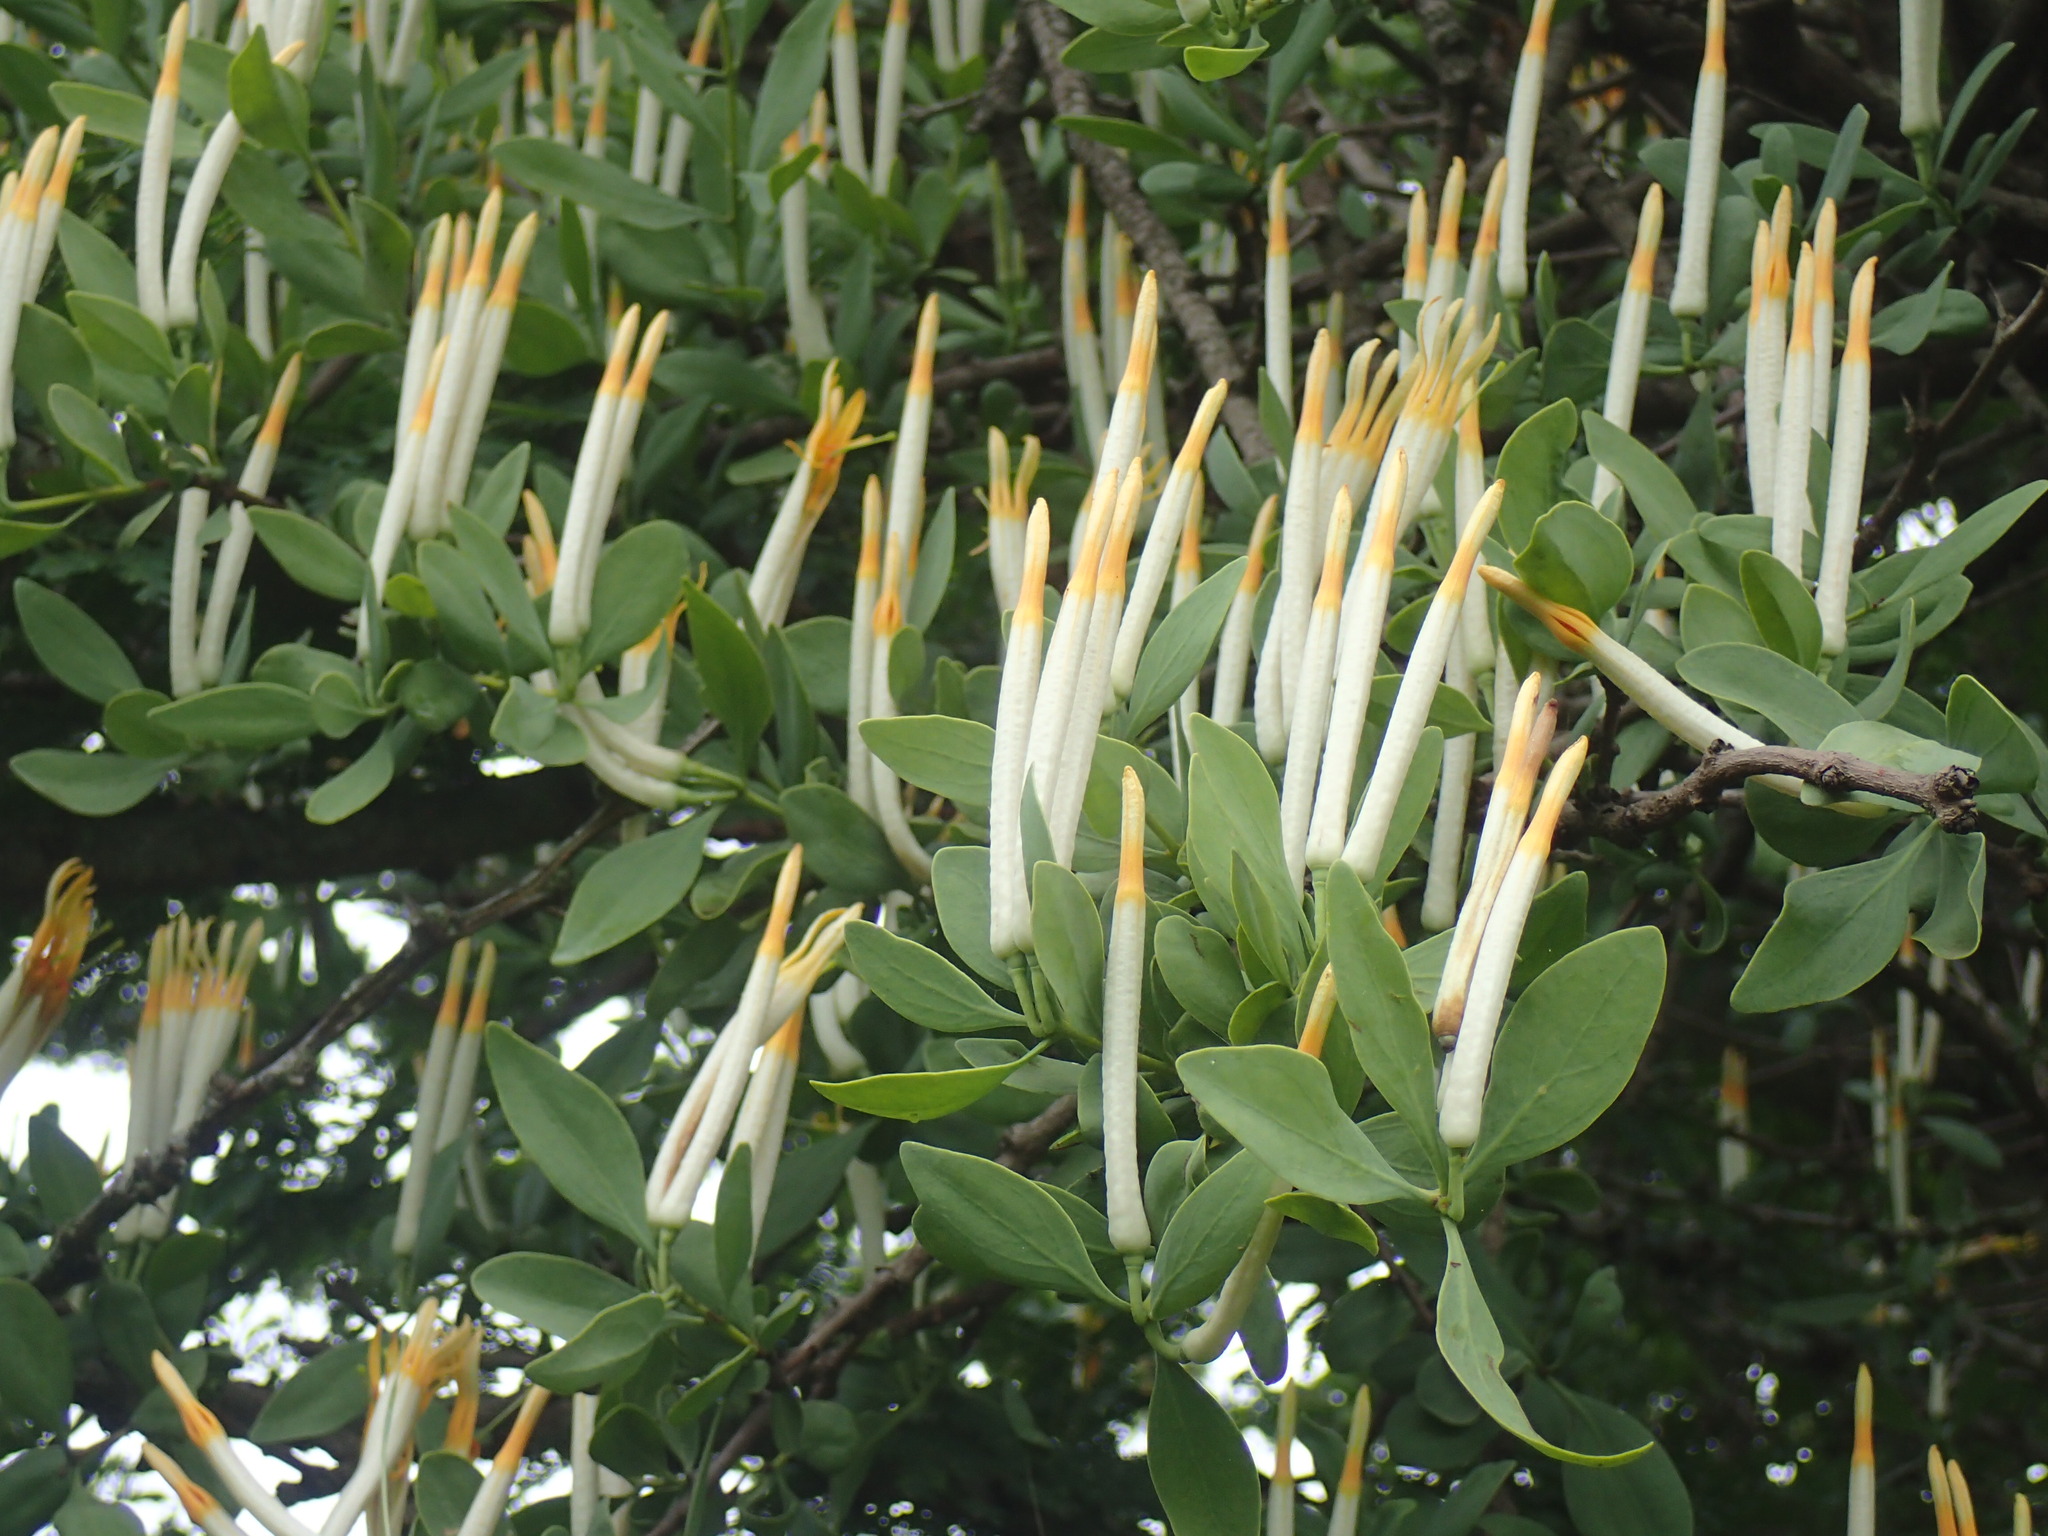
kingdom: Plantae
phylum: Tracheophyta
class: Magnoliopsida
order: Santalales
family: Loranthaceae
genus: Agelanthus
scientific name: Agelanthus natalitius
